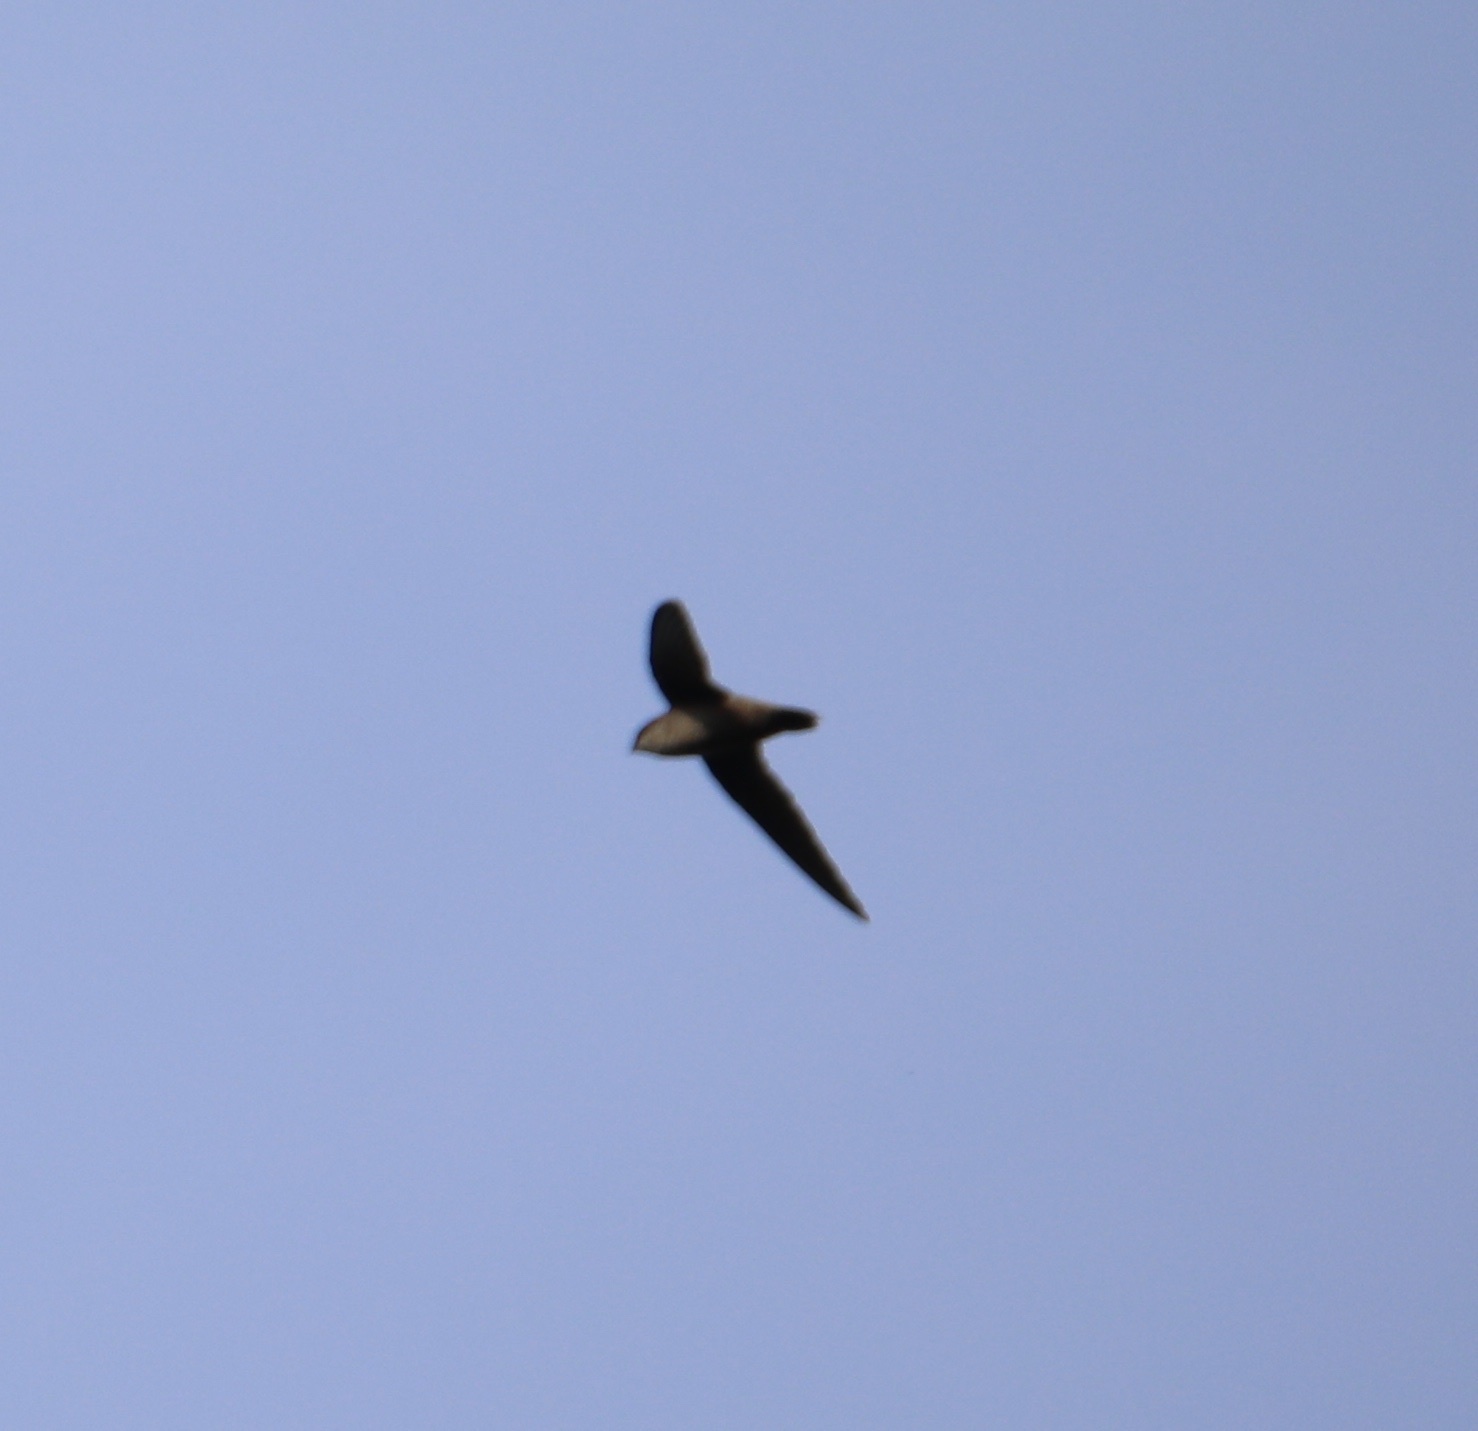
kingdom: Animalia
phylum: Chordata
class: Aves
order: Apodiformes
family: Apodidae
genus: Chaetura
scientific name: Chaetura pelagica
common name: Chimney swift
